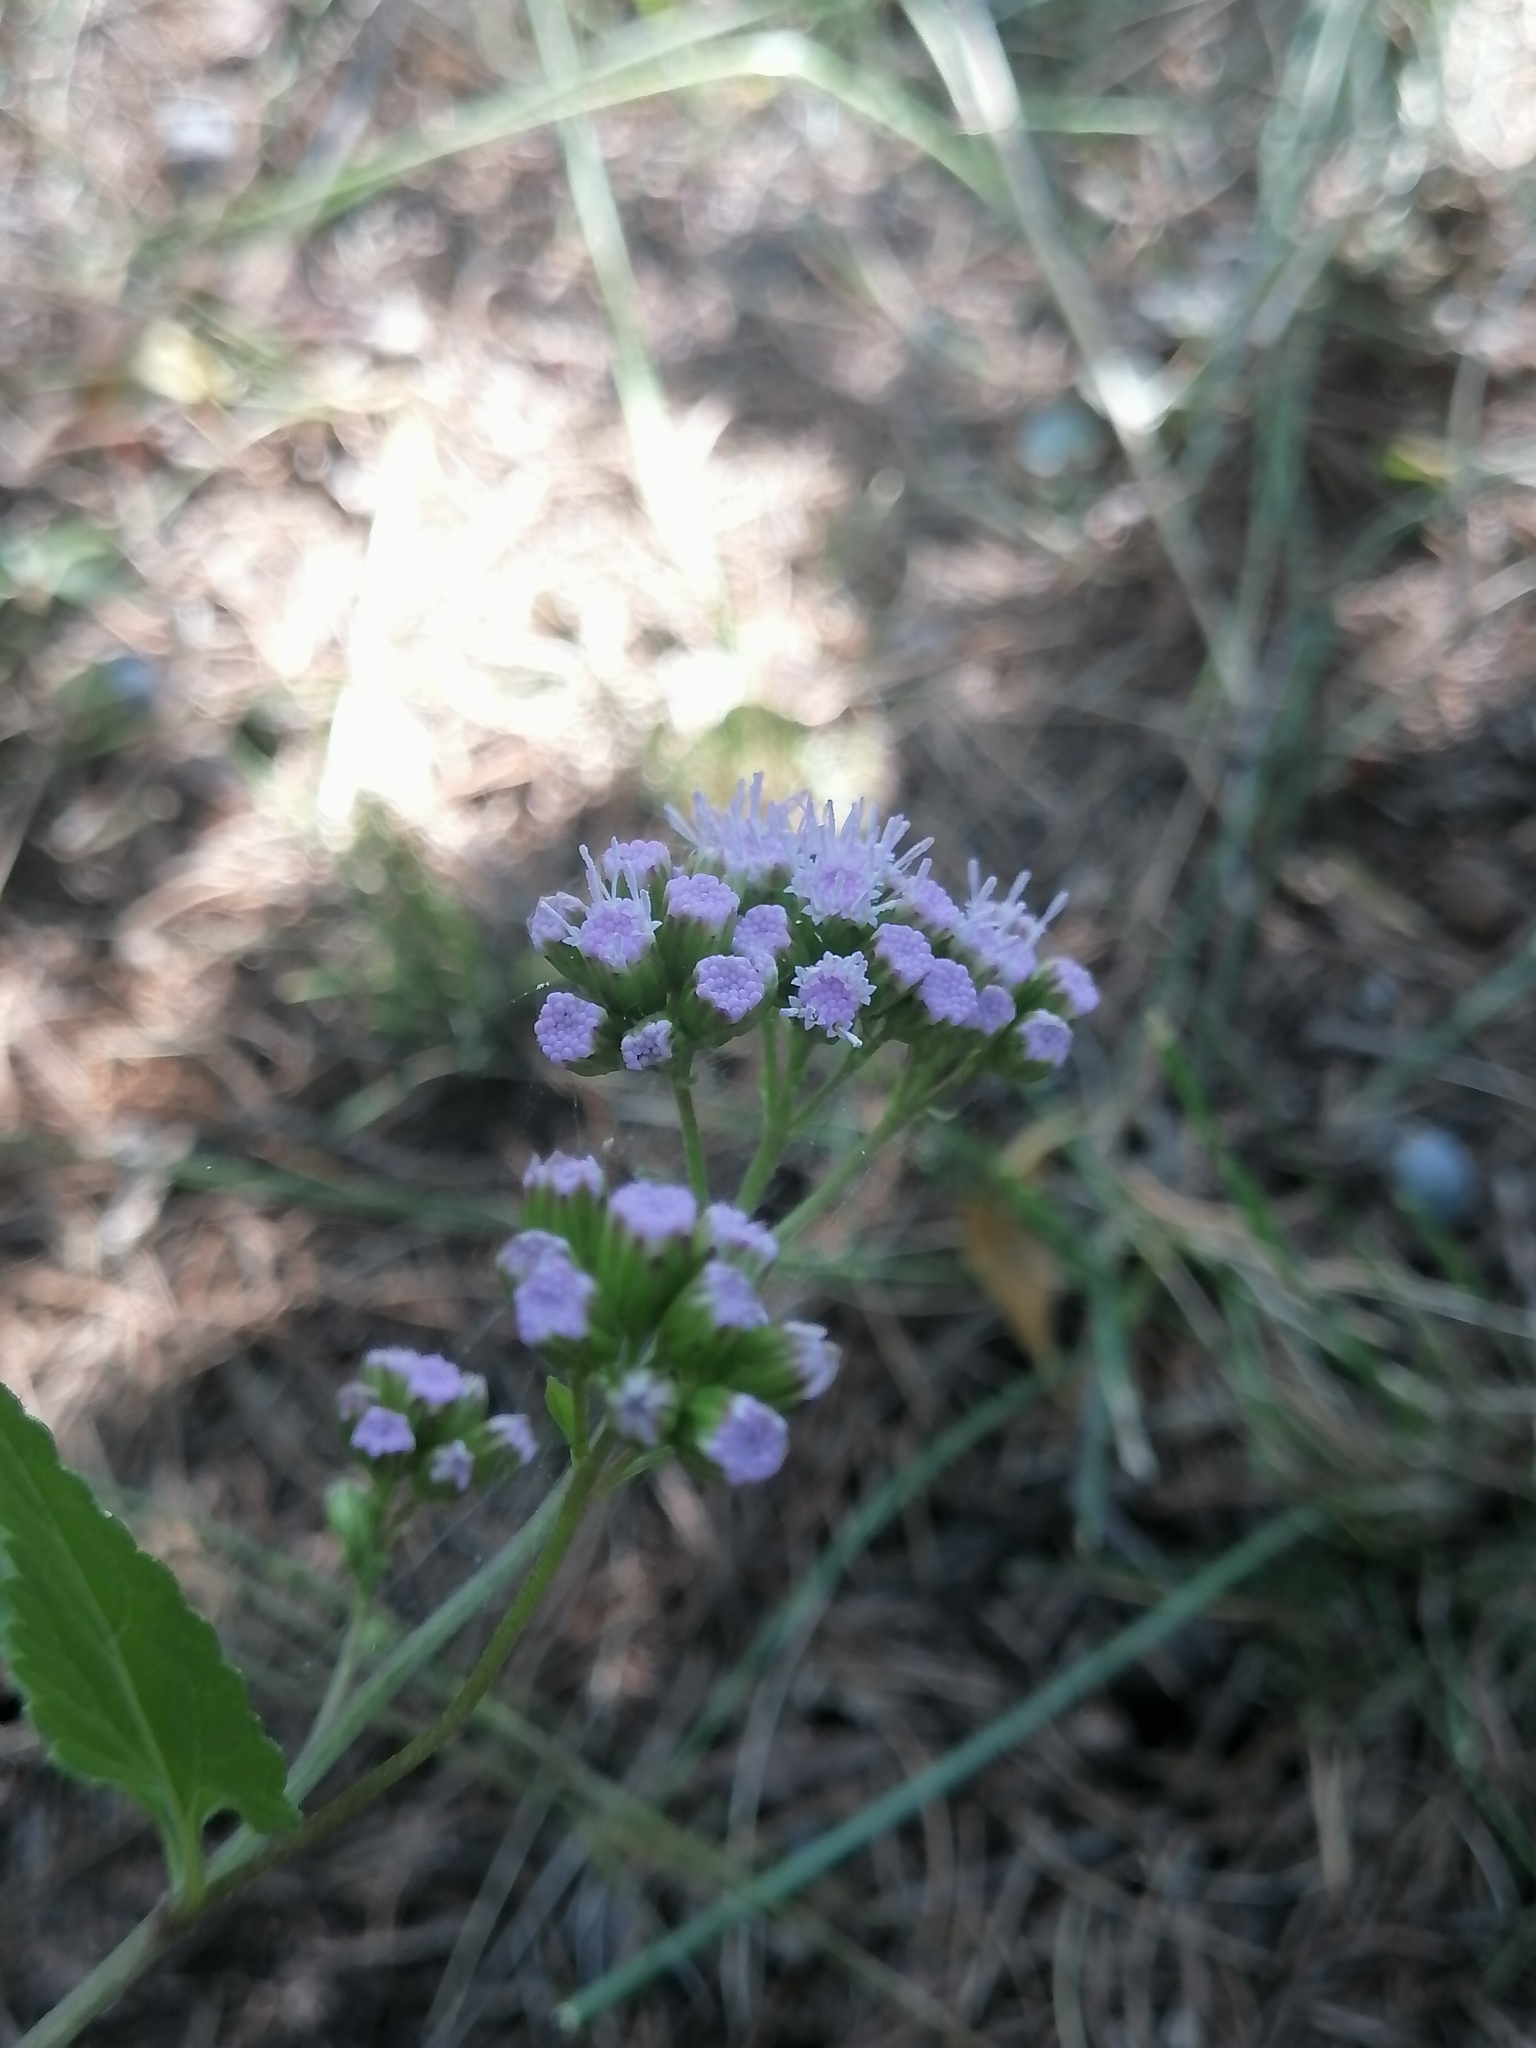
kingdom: Plantae
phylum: Tracheophyta
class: Magnoliopsida
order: Asterales
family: Asteraceae
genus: Fleischmannia
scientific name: Fleischmannia pycnocephala
